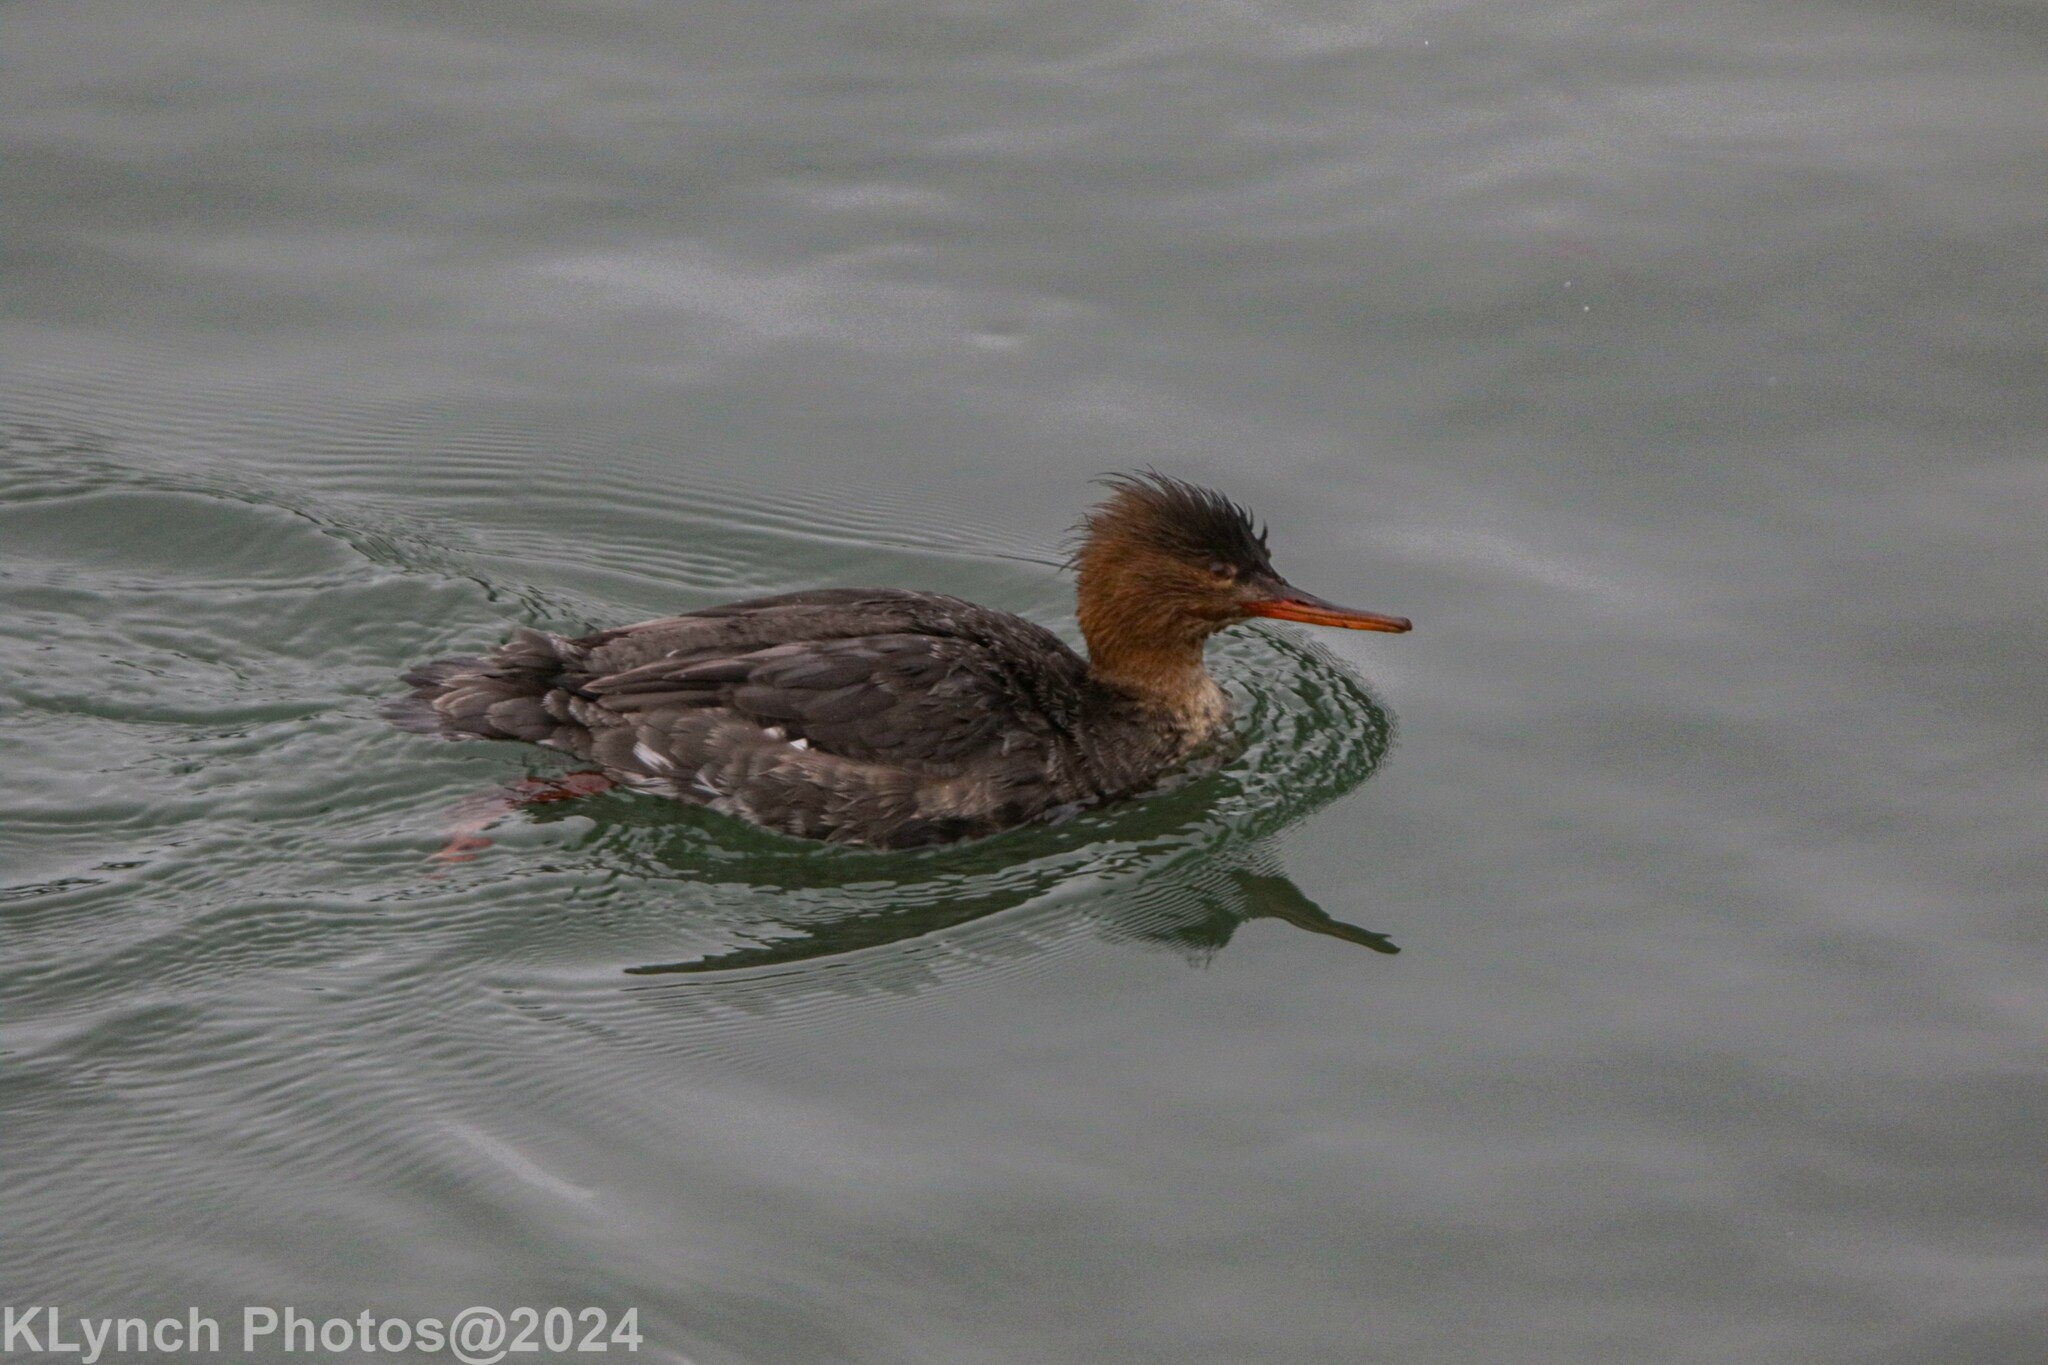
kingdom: Animalia
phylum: Chordata
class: Aves
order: Anseriformes
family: Anatidae
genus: Mergus
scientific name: Mergus serrator
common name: Red-breasted merganser
